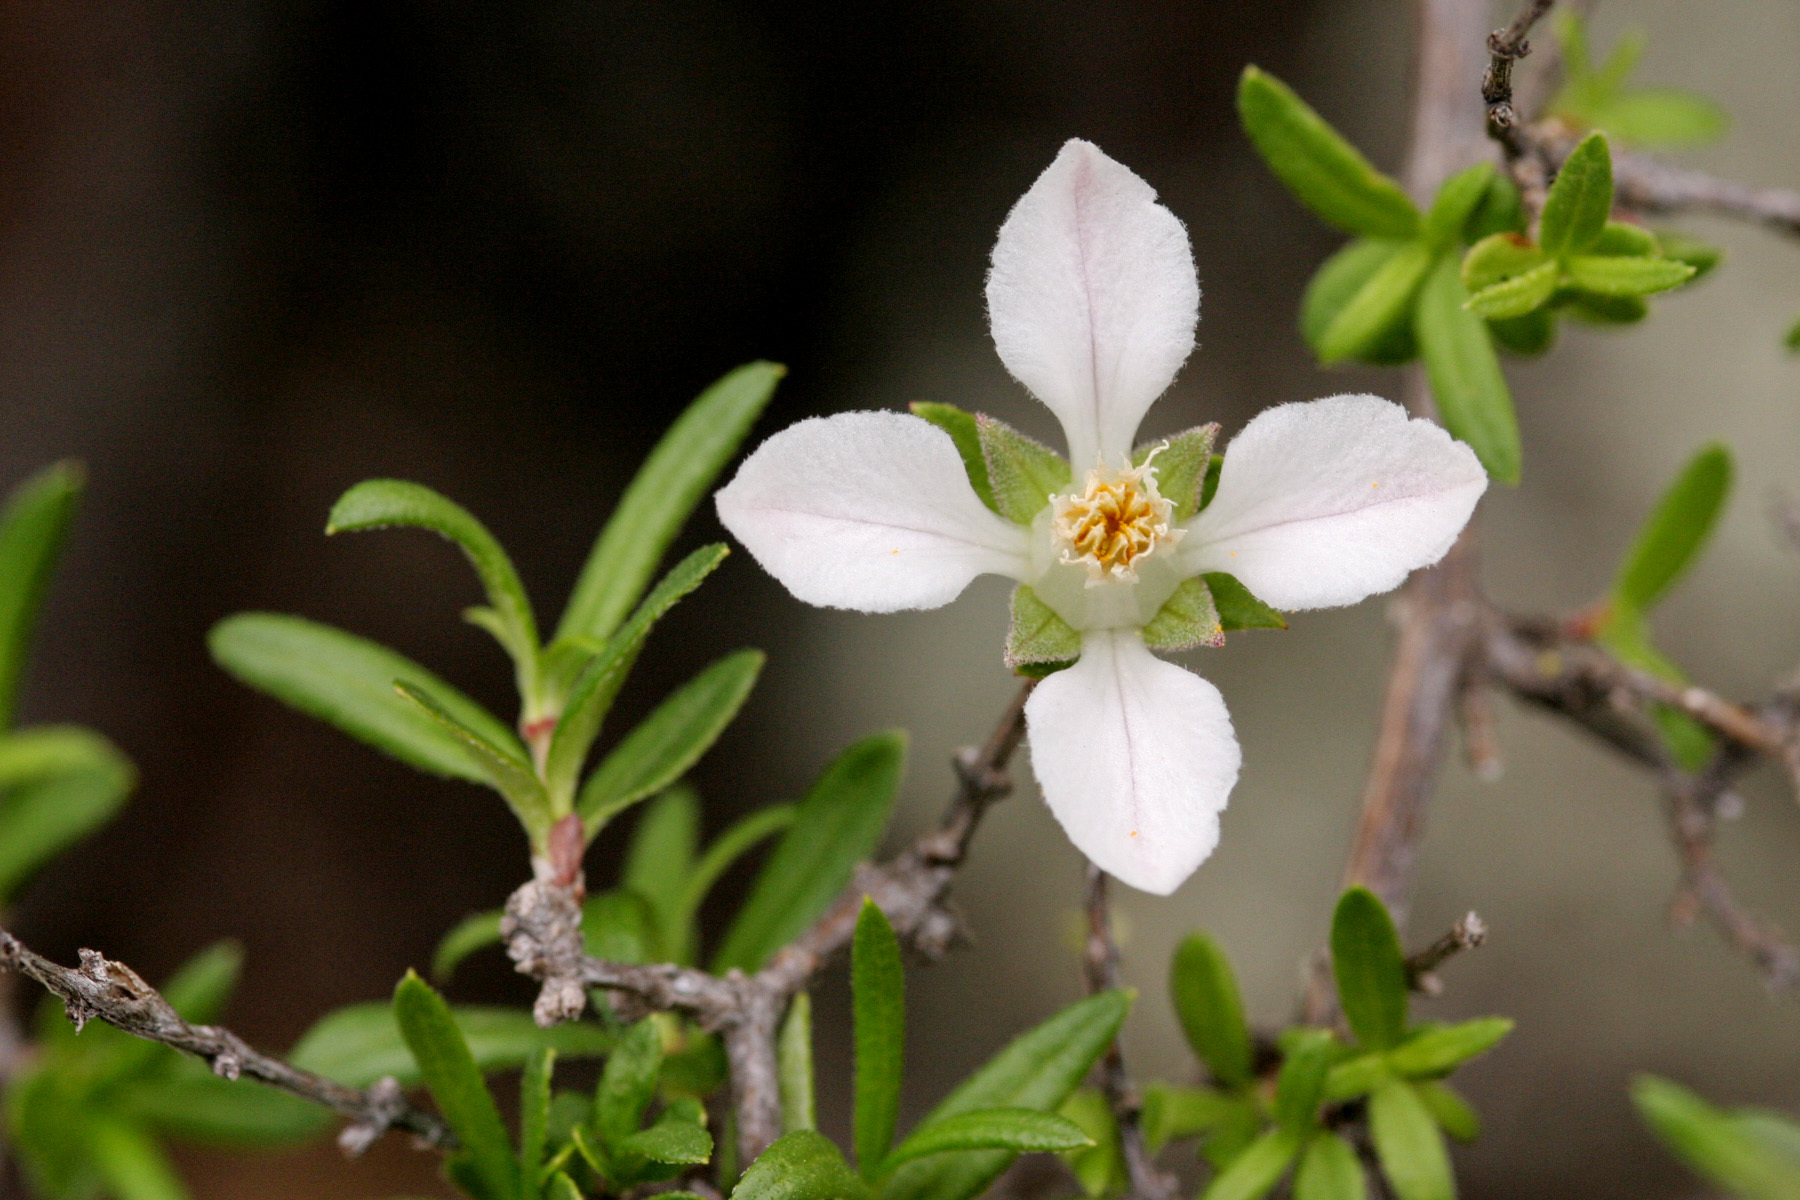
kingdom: Plantae
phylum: Tracheophyta
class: Magnoliopsida
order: Cornales
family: Hydrangeaceae
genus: Fendlera
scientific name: Fendlera rupicola
